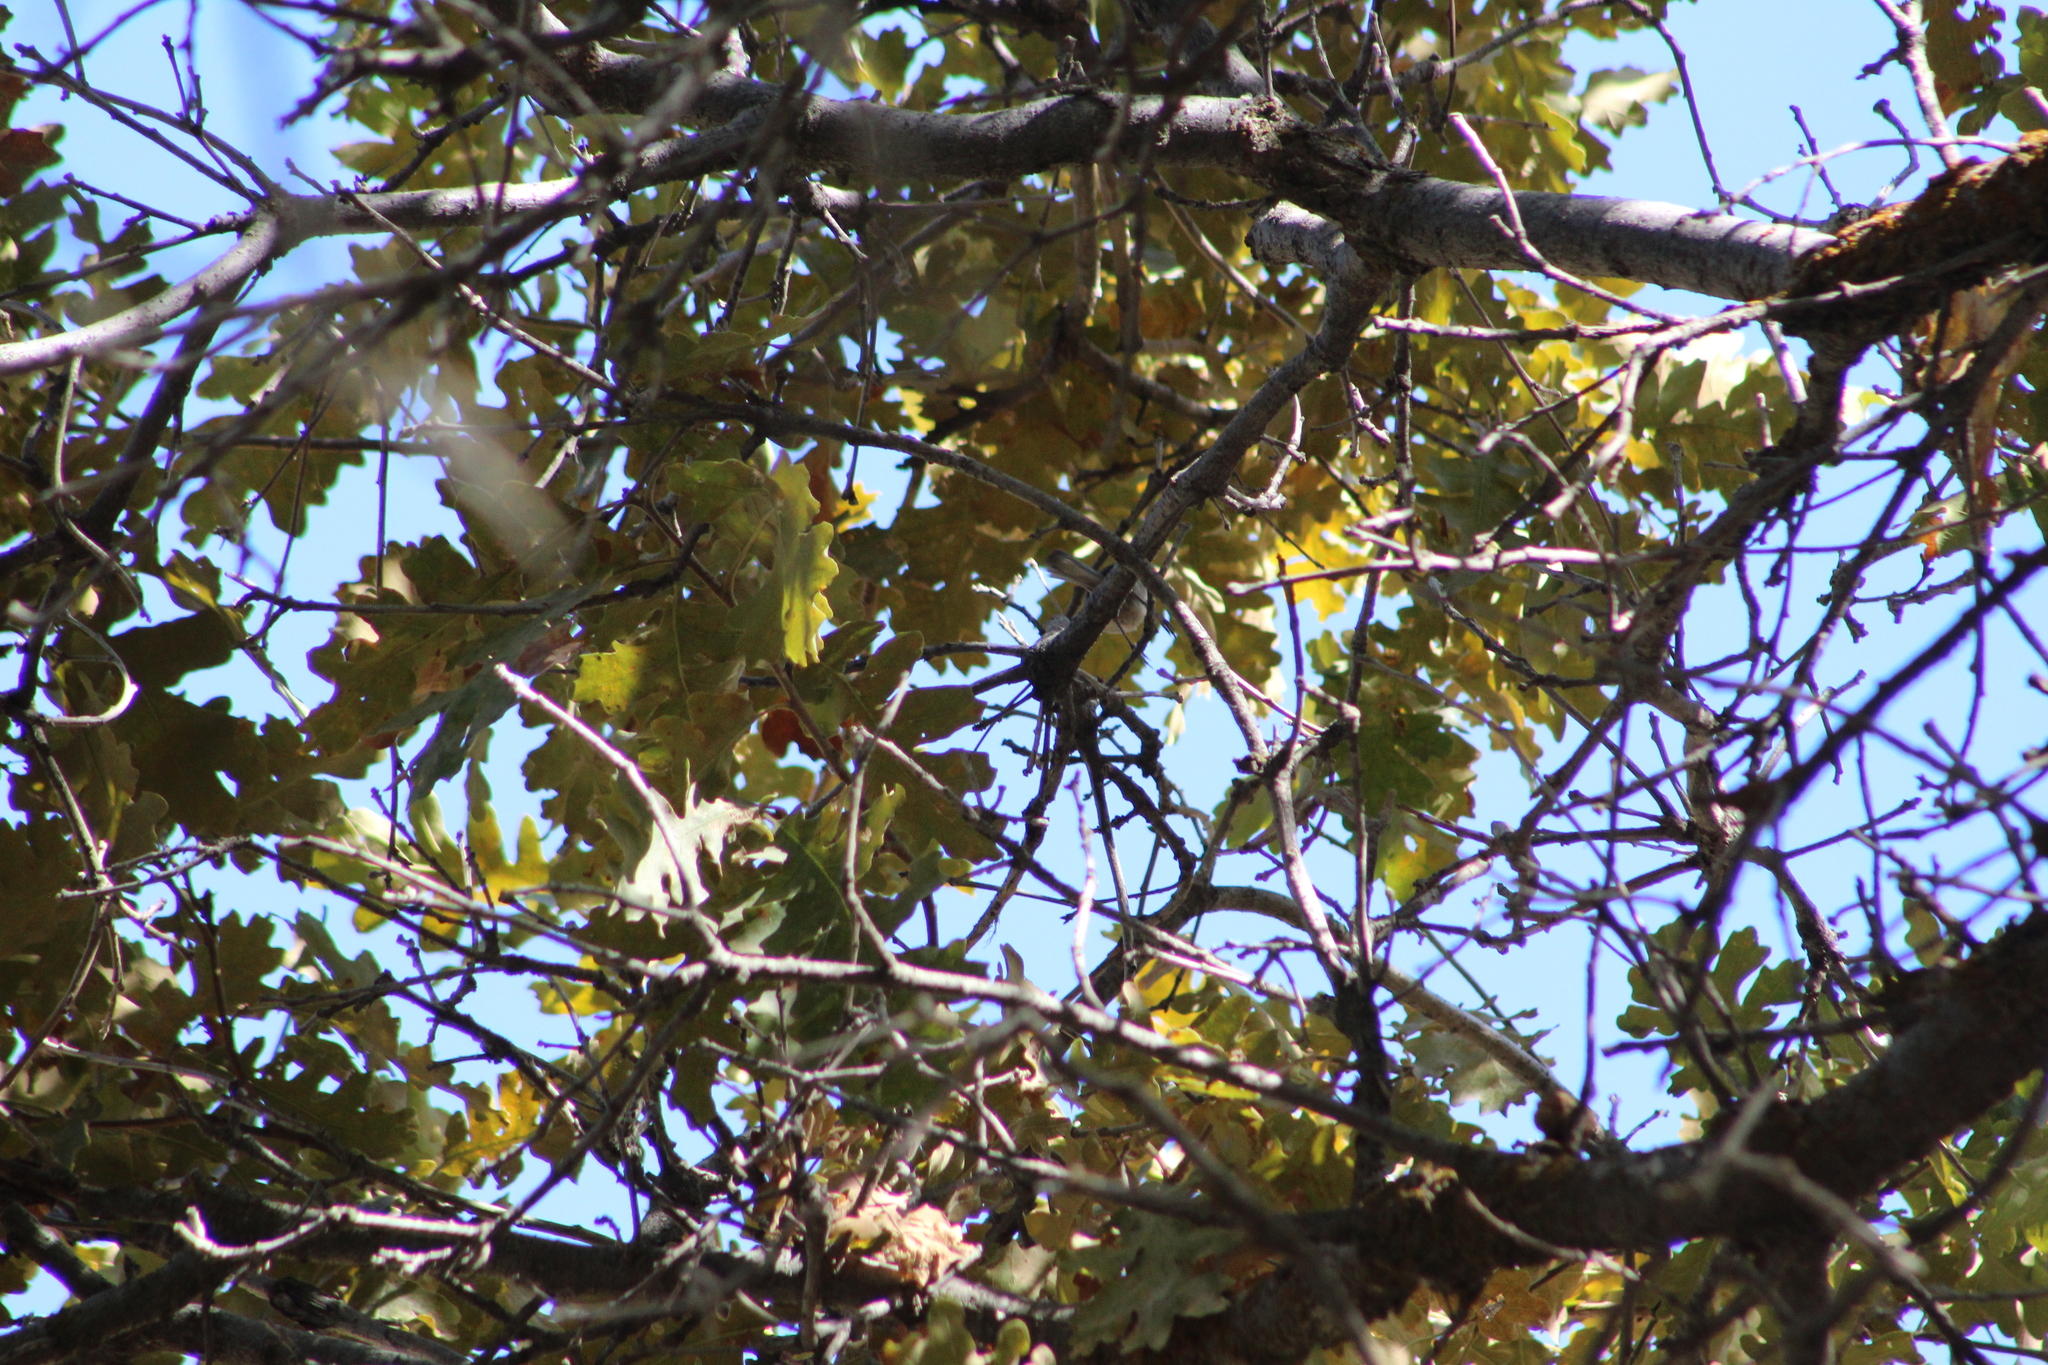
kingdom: Animalia
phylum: Chordata
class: Aves
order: Passeriformes
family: Aegithalidae
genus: Psaltriparus
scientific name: Psaltriparus minimus
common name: American bushtit
